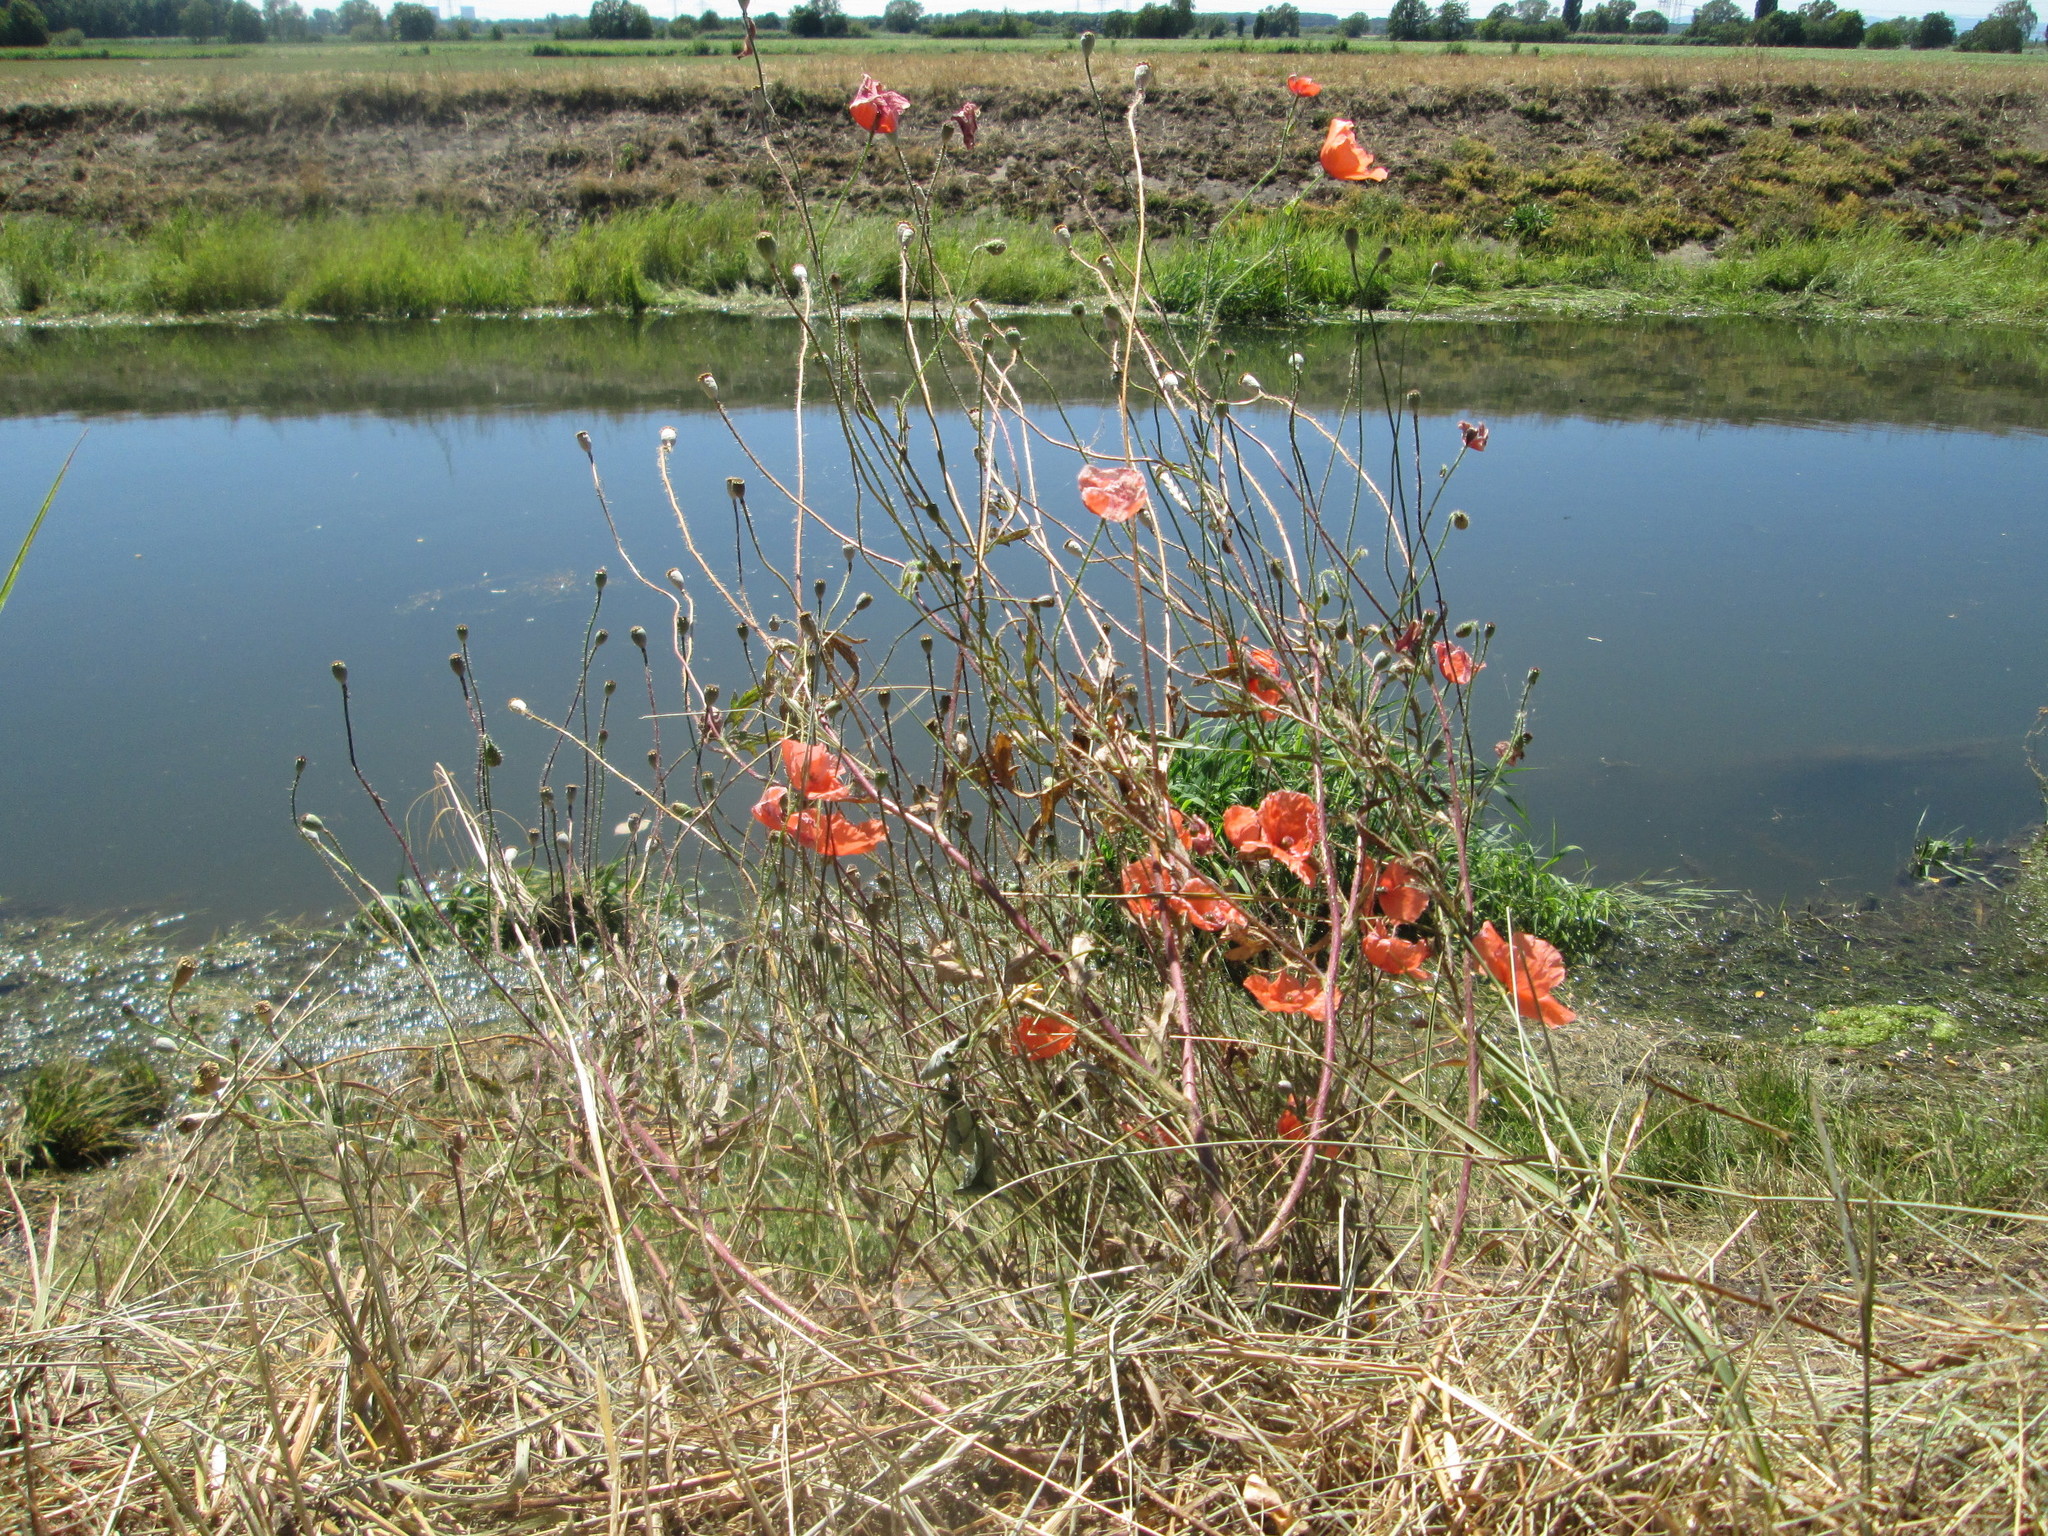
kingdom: Plantae
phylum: Tracheophyta
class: Magnoliopsida
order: Ranunculales
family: Papaveraceae
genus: Papaver
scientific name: Papaver rhoeas
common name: Corn poppy
